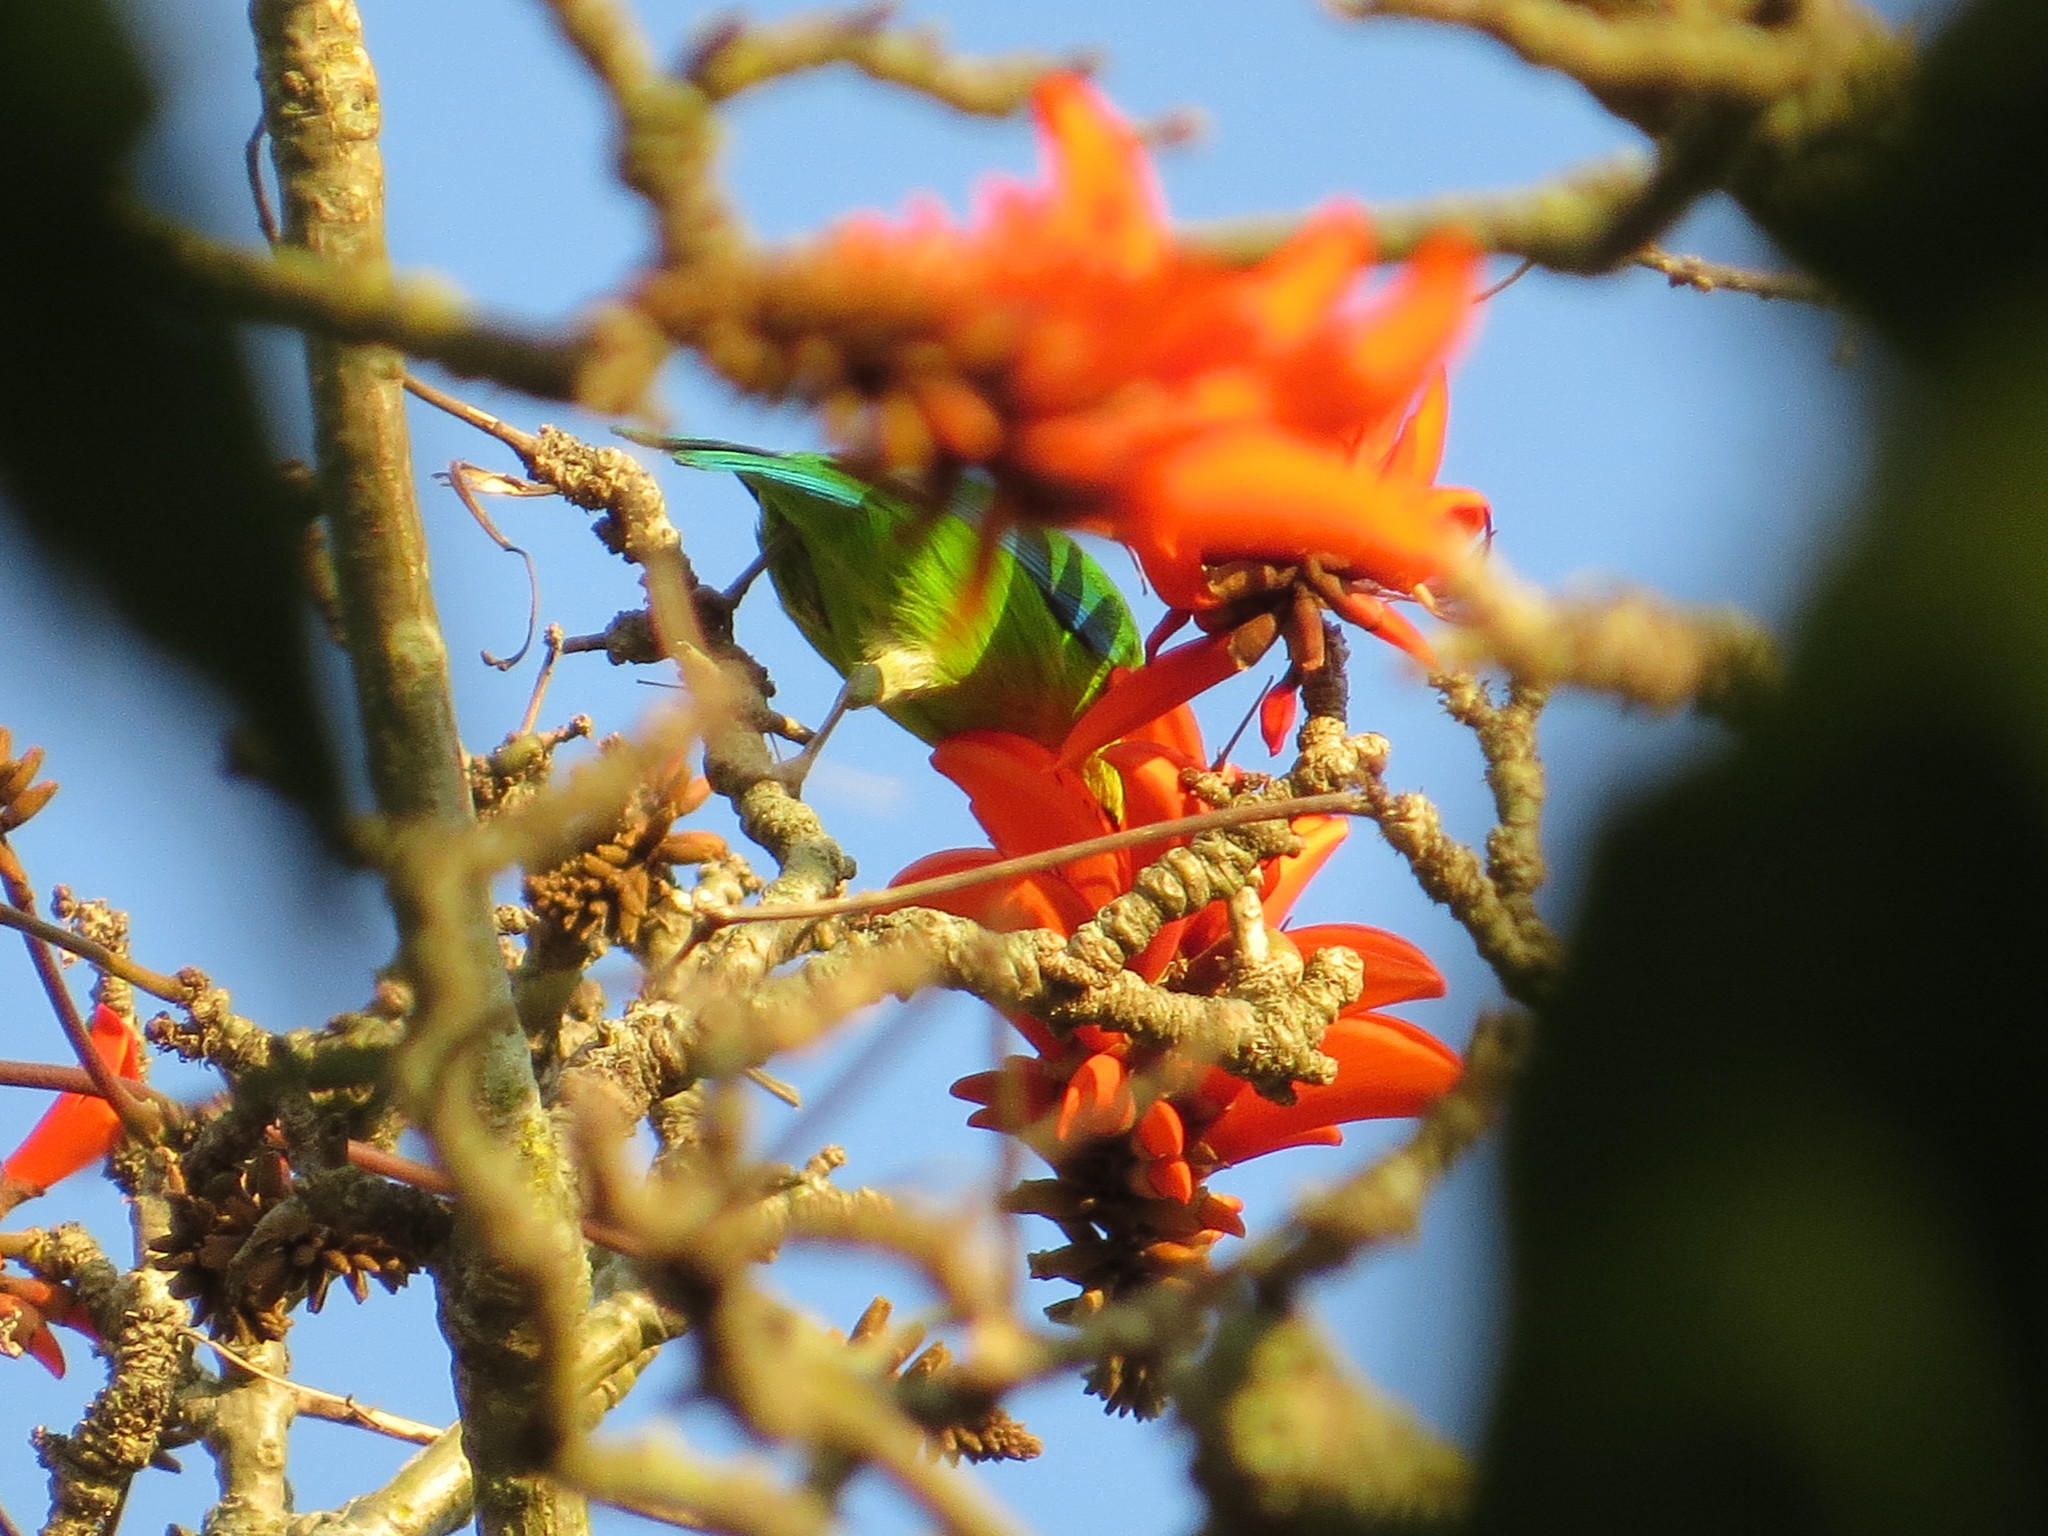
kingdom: Animalia
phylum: Chordata
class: Aves
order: Passeriformes
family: Chloropseidae
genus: Chloropsis
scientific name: Chloropsis moluccensis
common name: Blue-winged leafbird
